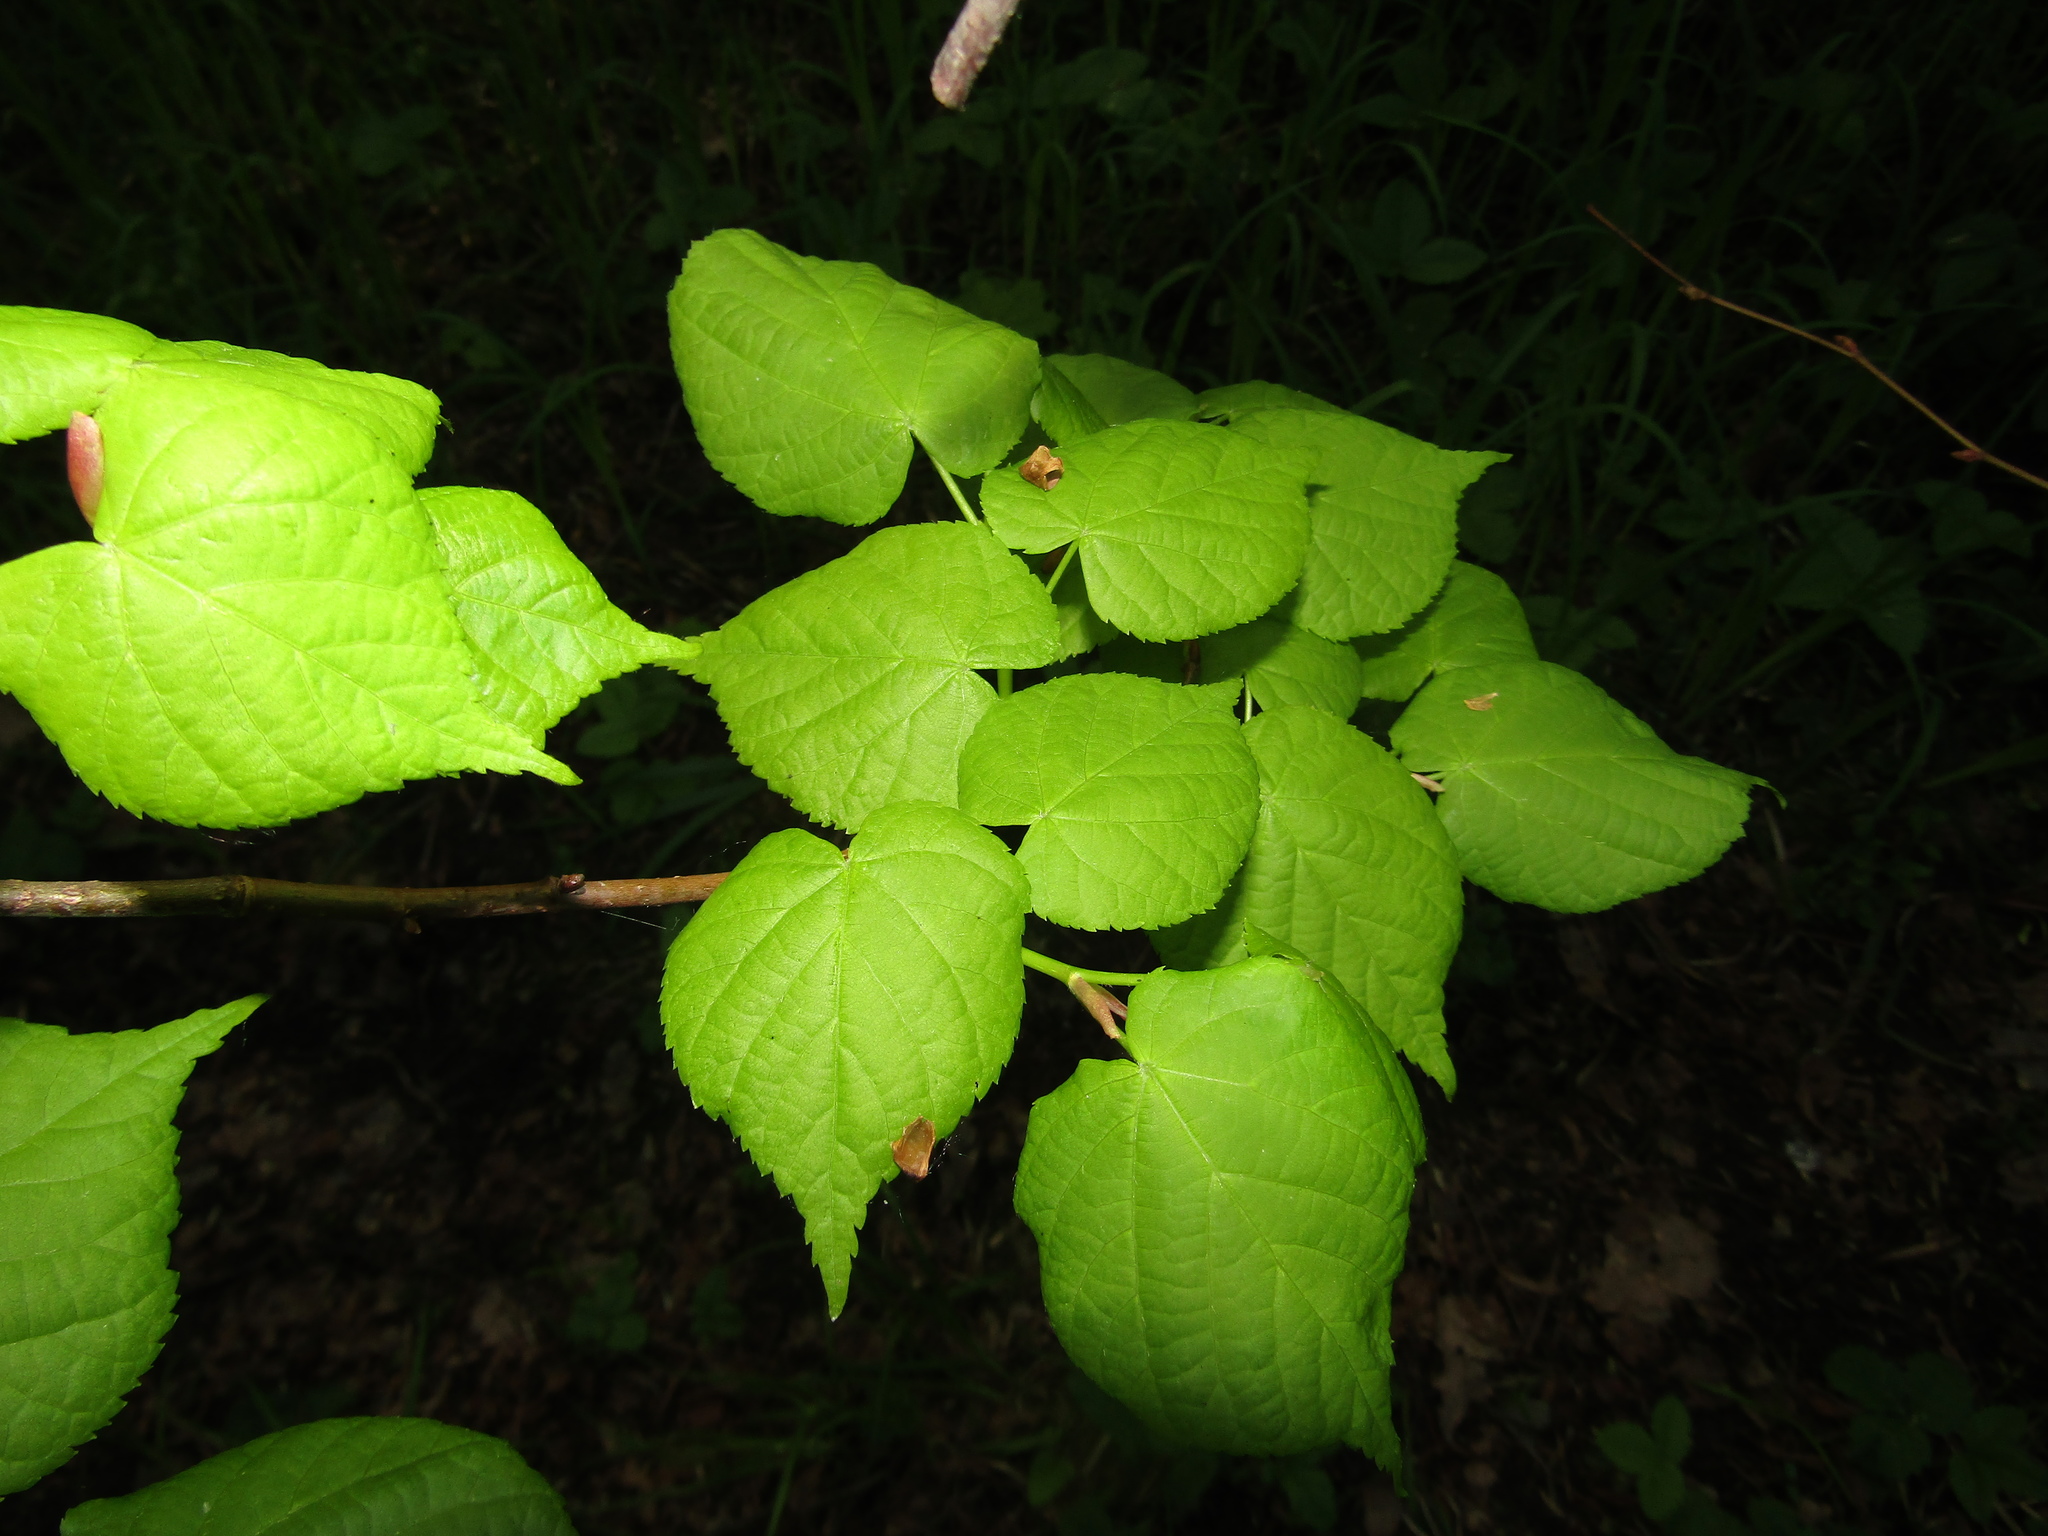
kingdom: Plantae
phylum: Tracheophyta
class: Magnoliopsida
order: Malvales
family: Malvaceae
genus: Tilia
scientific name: Tilia cordata
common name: Small-leaved lime
